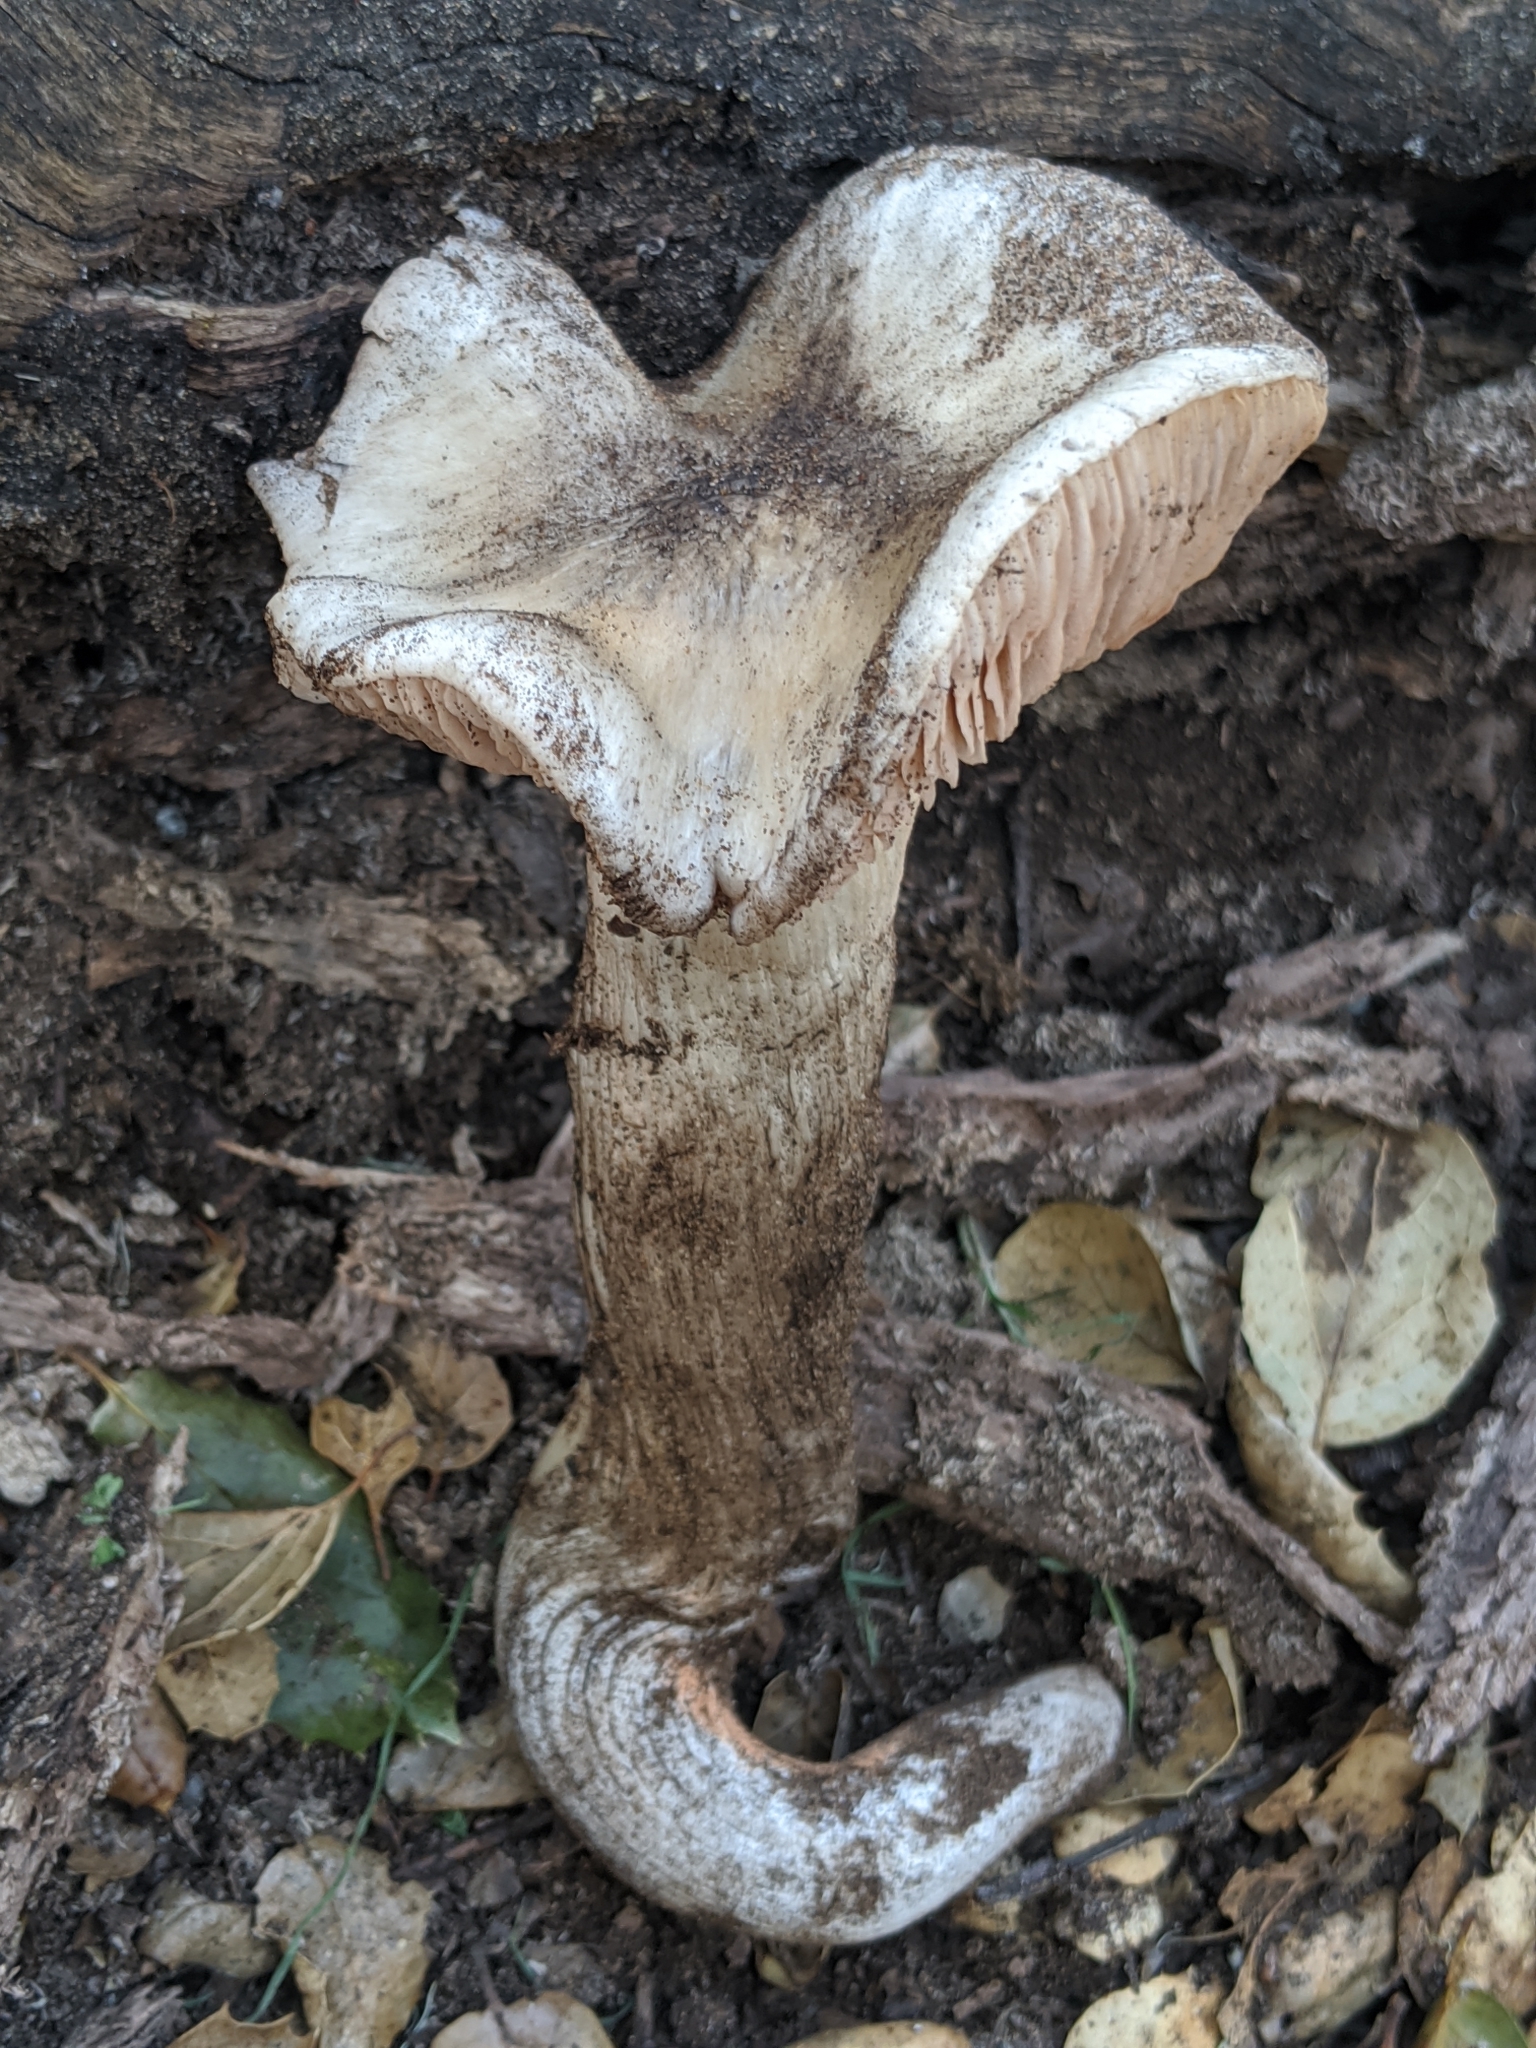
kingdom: Fungi
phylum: Basidiomycota
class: Agaricomycetes
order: Agaricales
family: Entolomataceae
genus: Entoloma
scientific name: Entoloma lividoalbum
